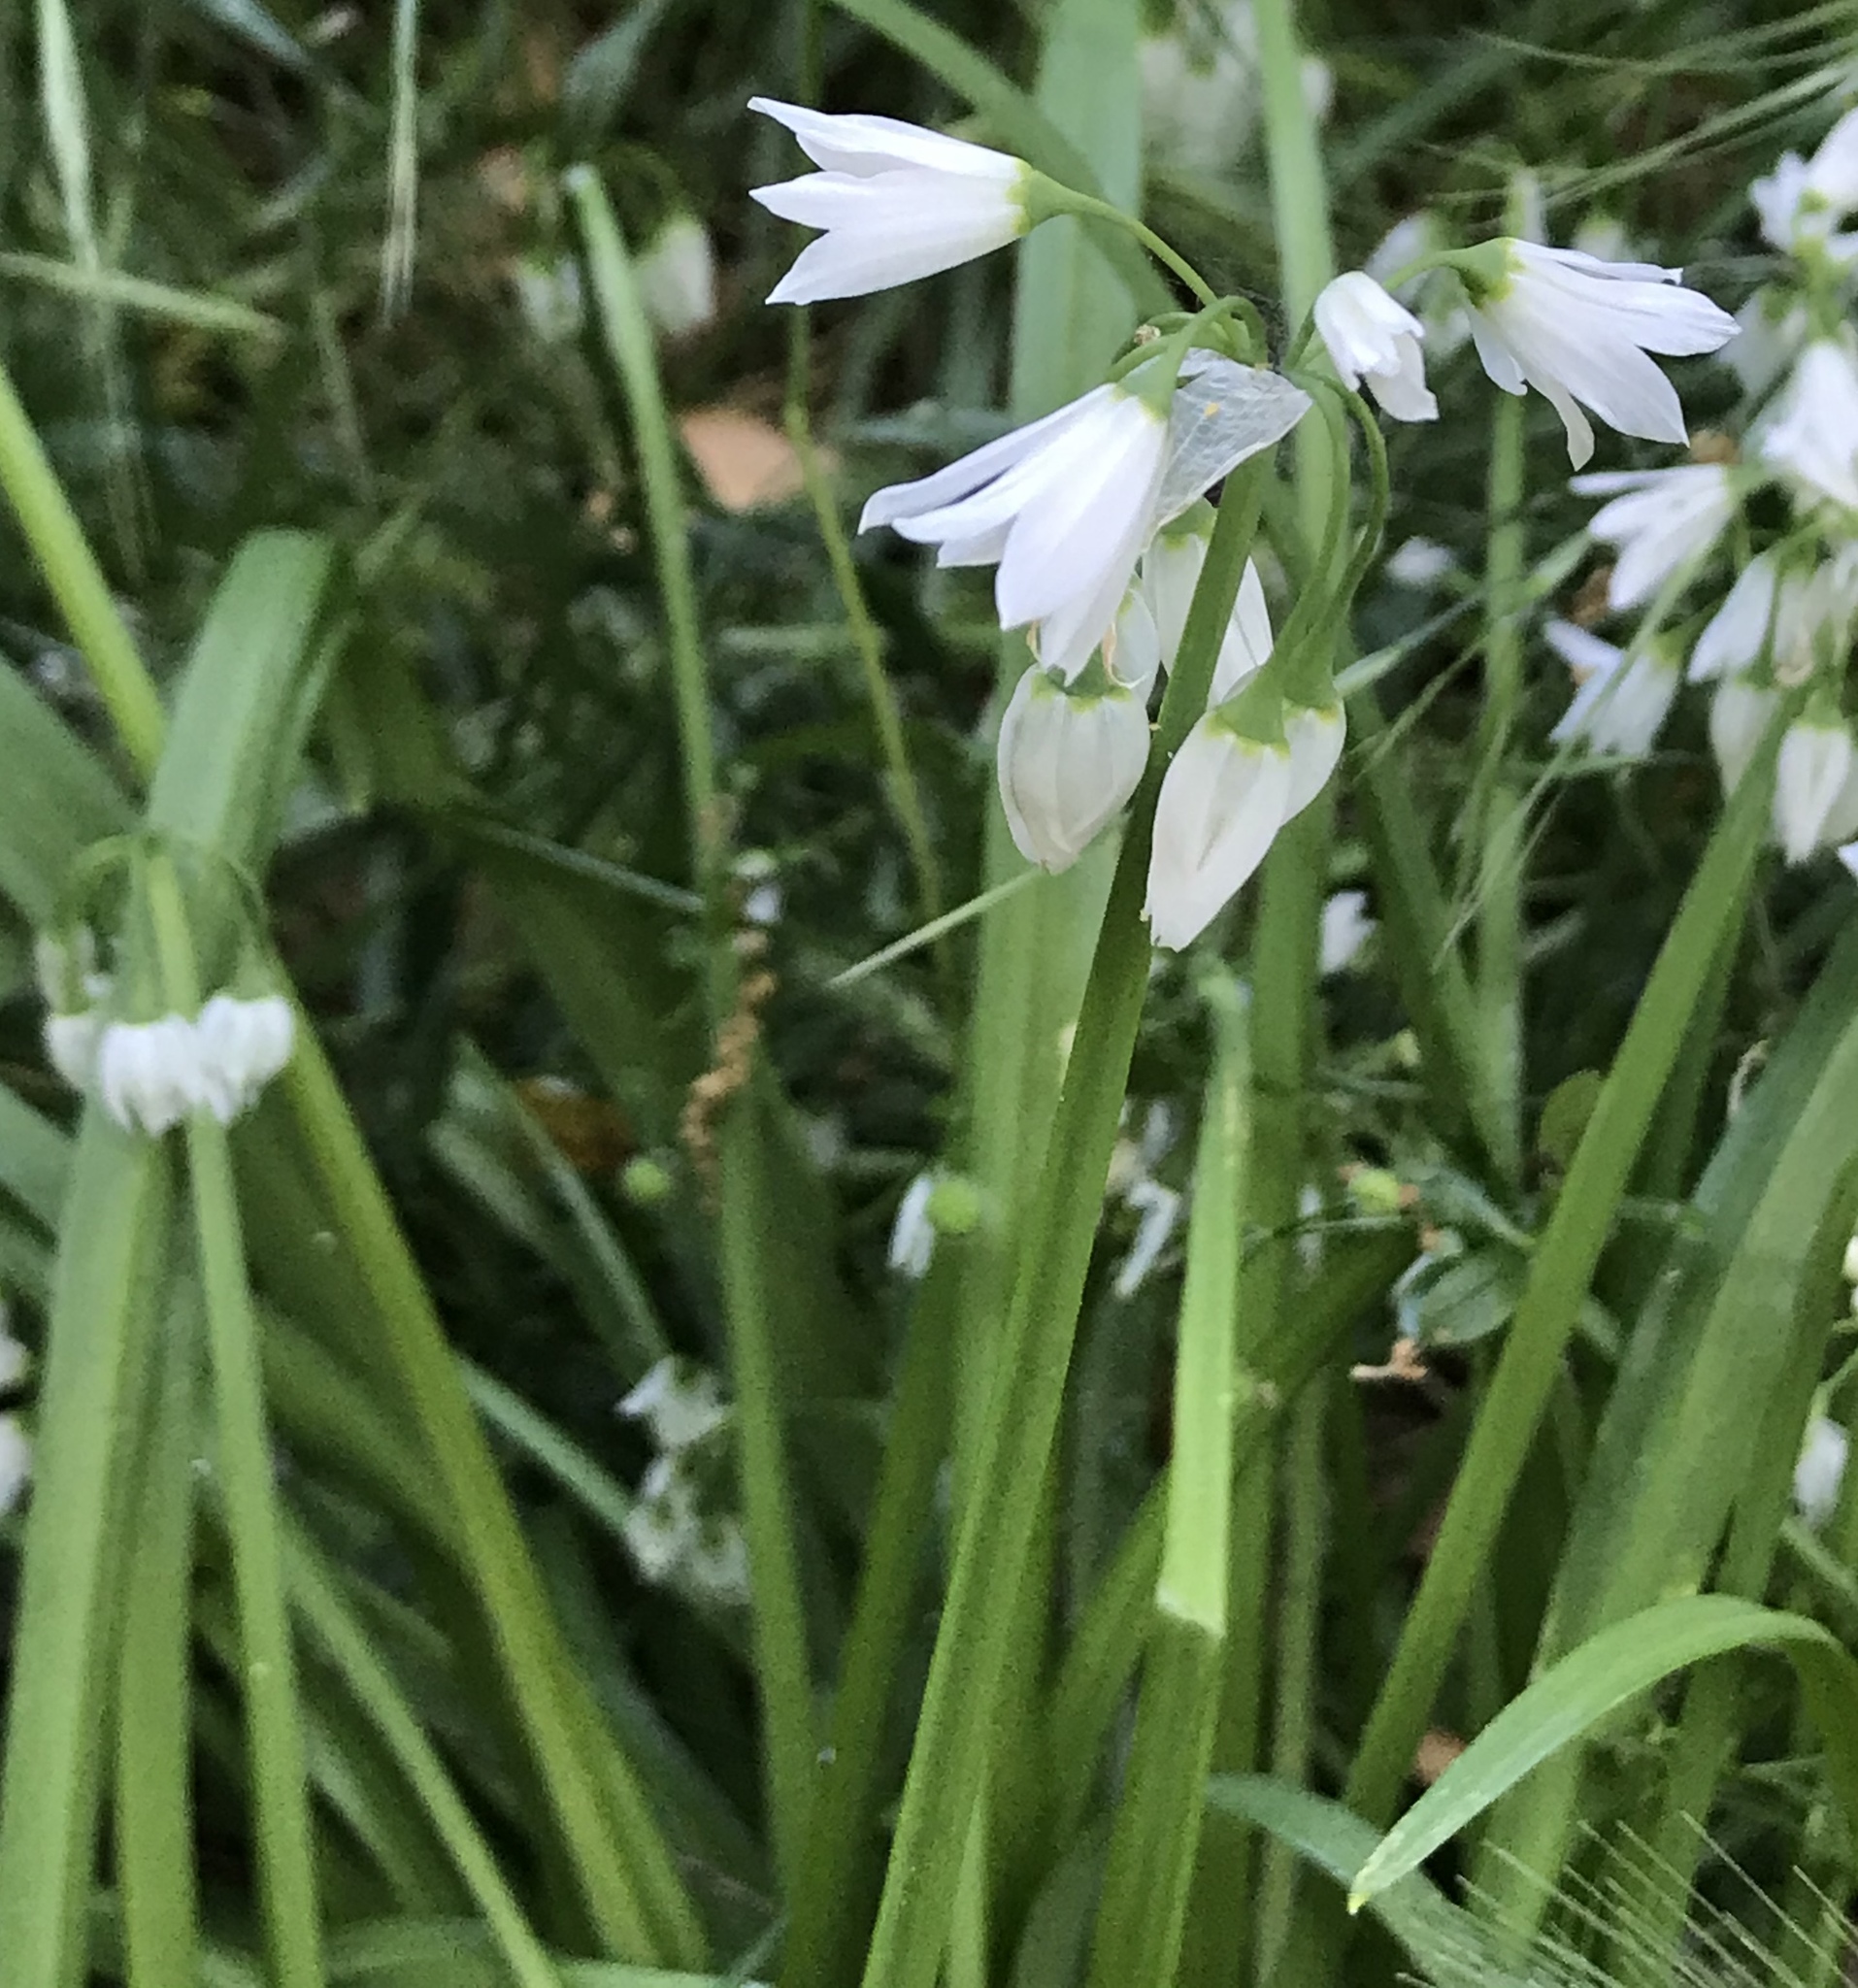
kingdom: Plantae
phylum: Tracheophyta
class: Liliopsida
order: Asparagales
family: Amaryllidaceae
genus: Allium
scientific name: Allium triquetrum
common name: Three-cornered garlic
